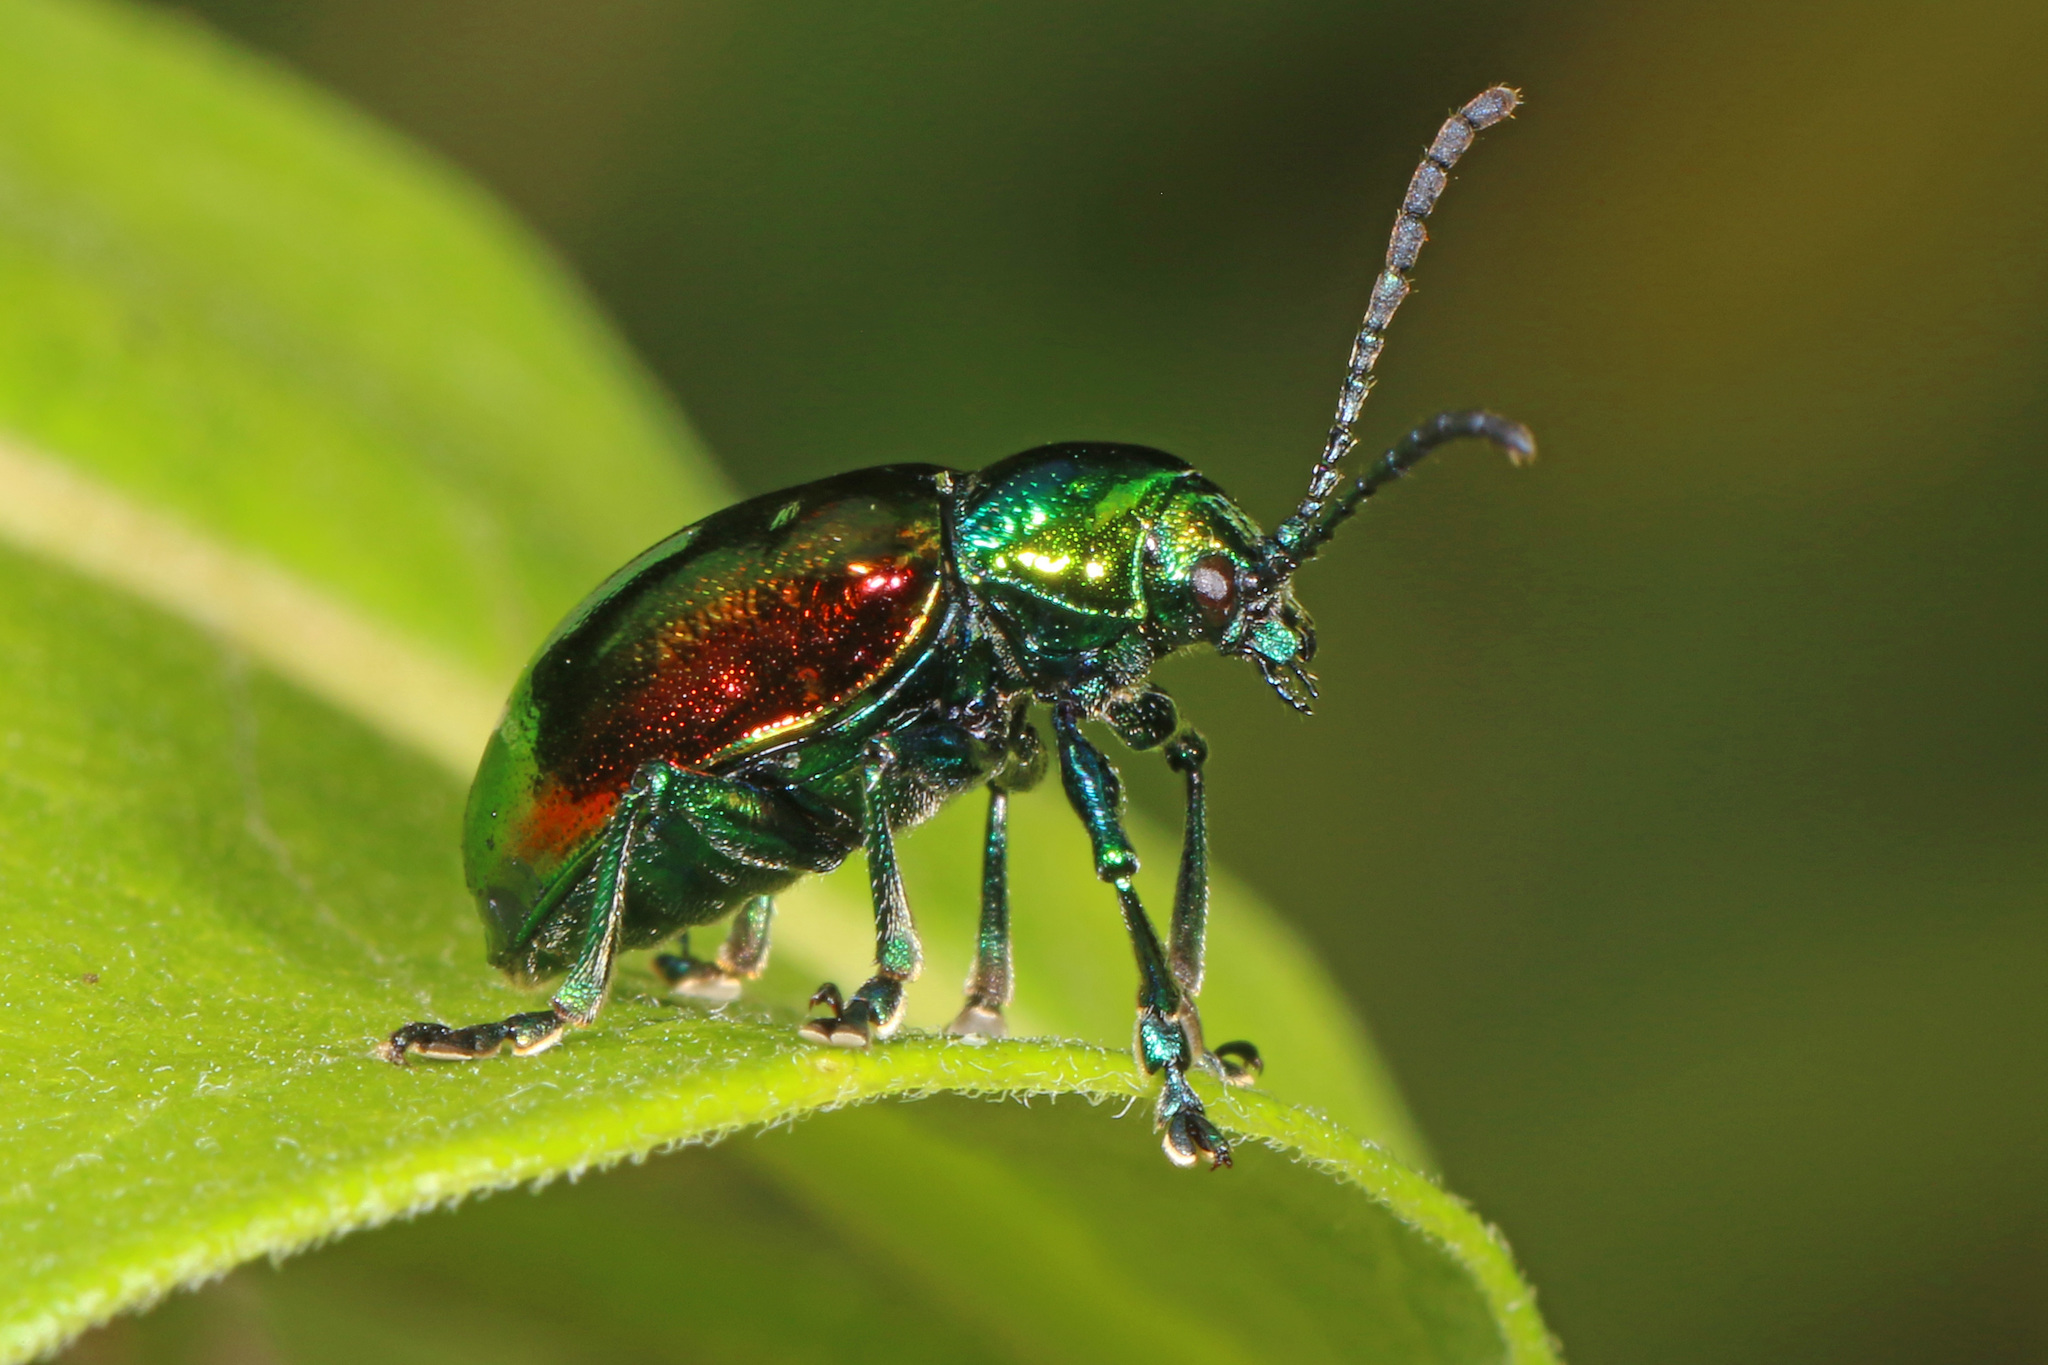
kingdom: Animalia
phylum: Arthropoda
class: Insecta
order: Coleoptera
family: Chrysomelidae
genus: Chrysochus
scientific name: Chrysochus auratus
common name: Dogbane leaf beetle
